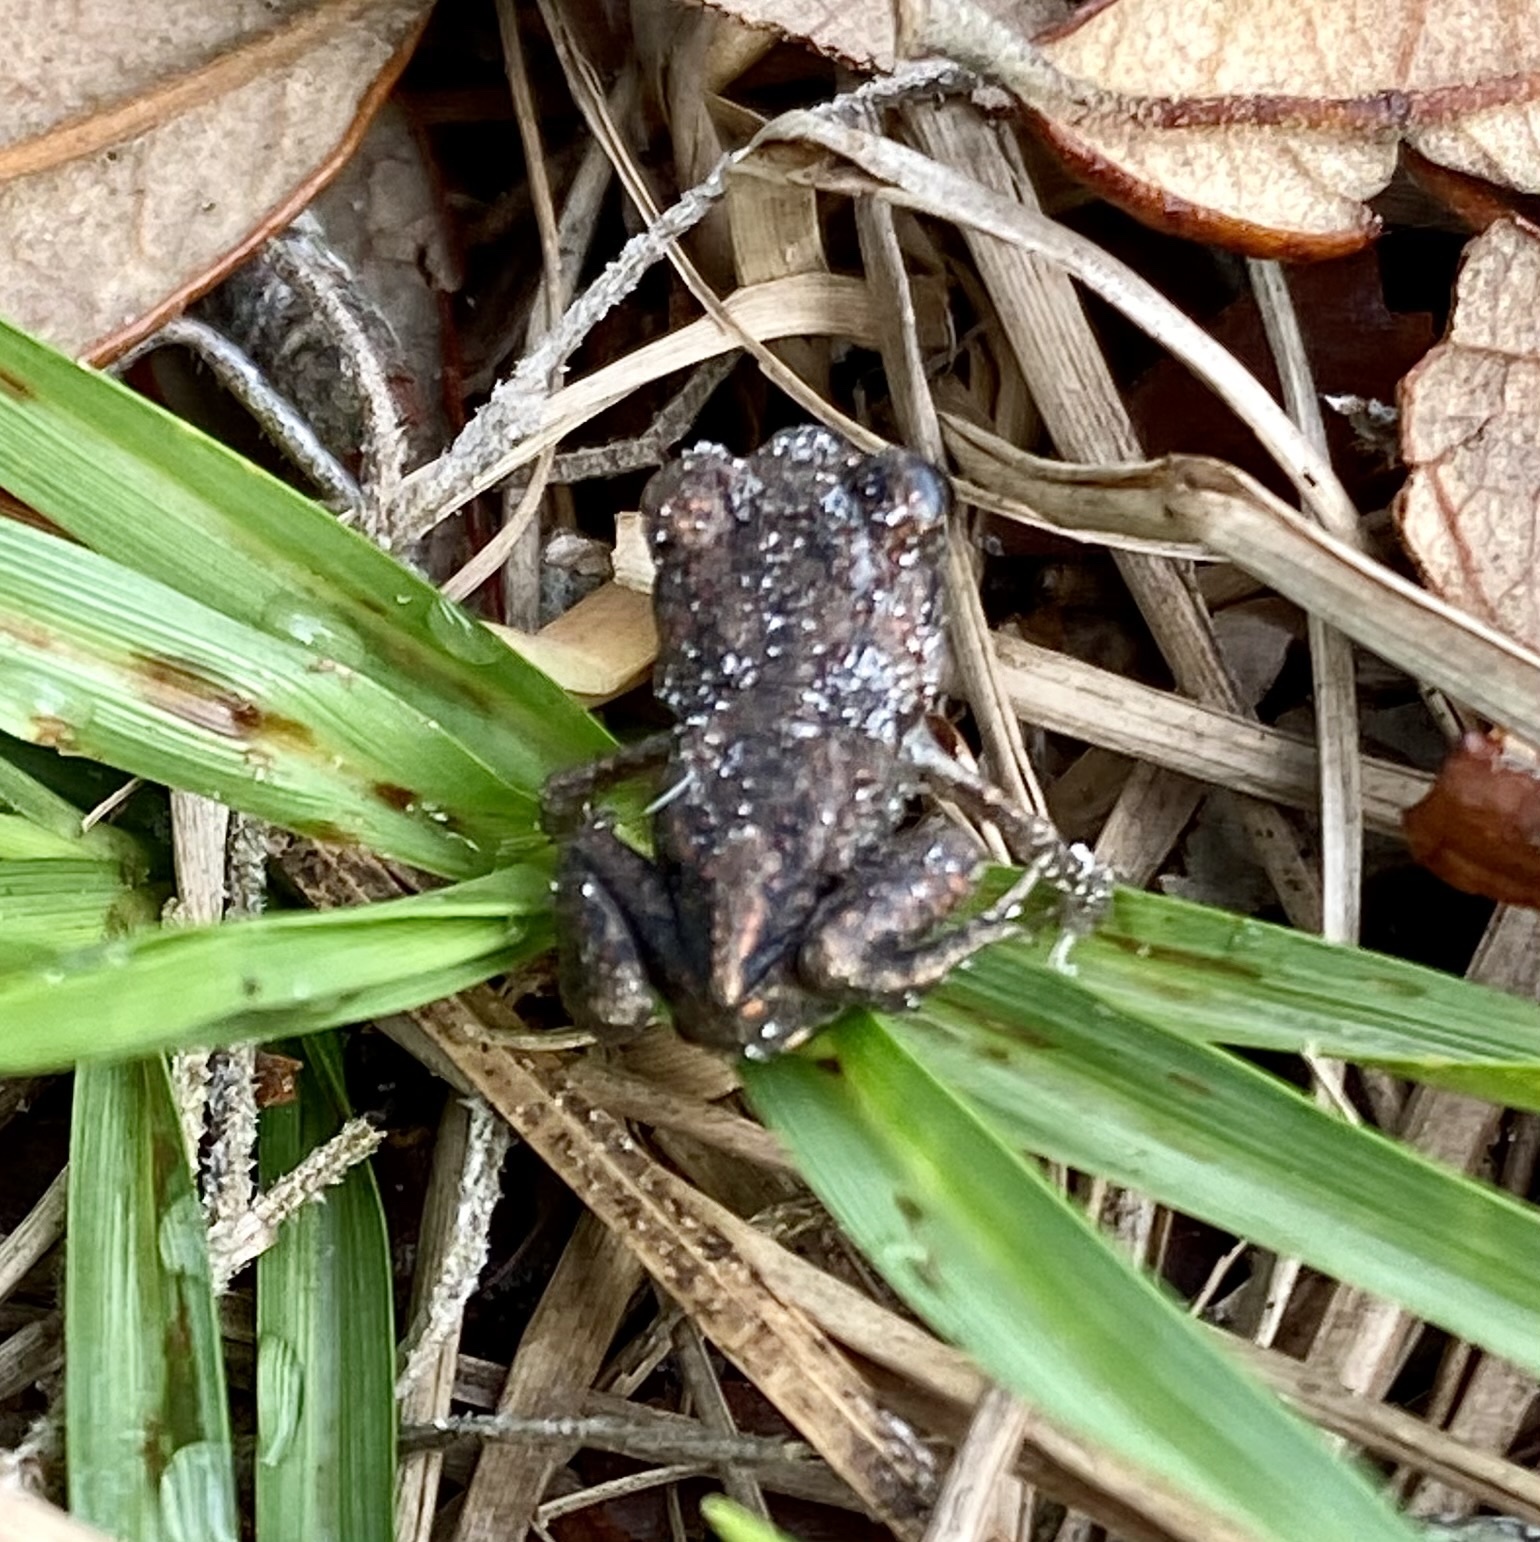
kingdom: Animalia
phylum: Chordata
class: Amphibia
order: Anura
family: Scaphiopodidae
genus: Scaphiopus
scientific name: Scaphiopus holbrookii
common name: Eastern spadefoot toad
